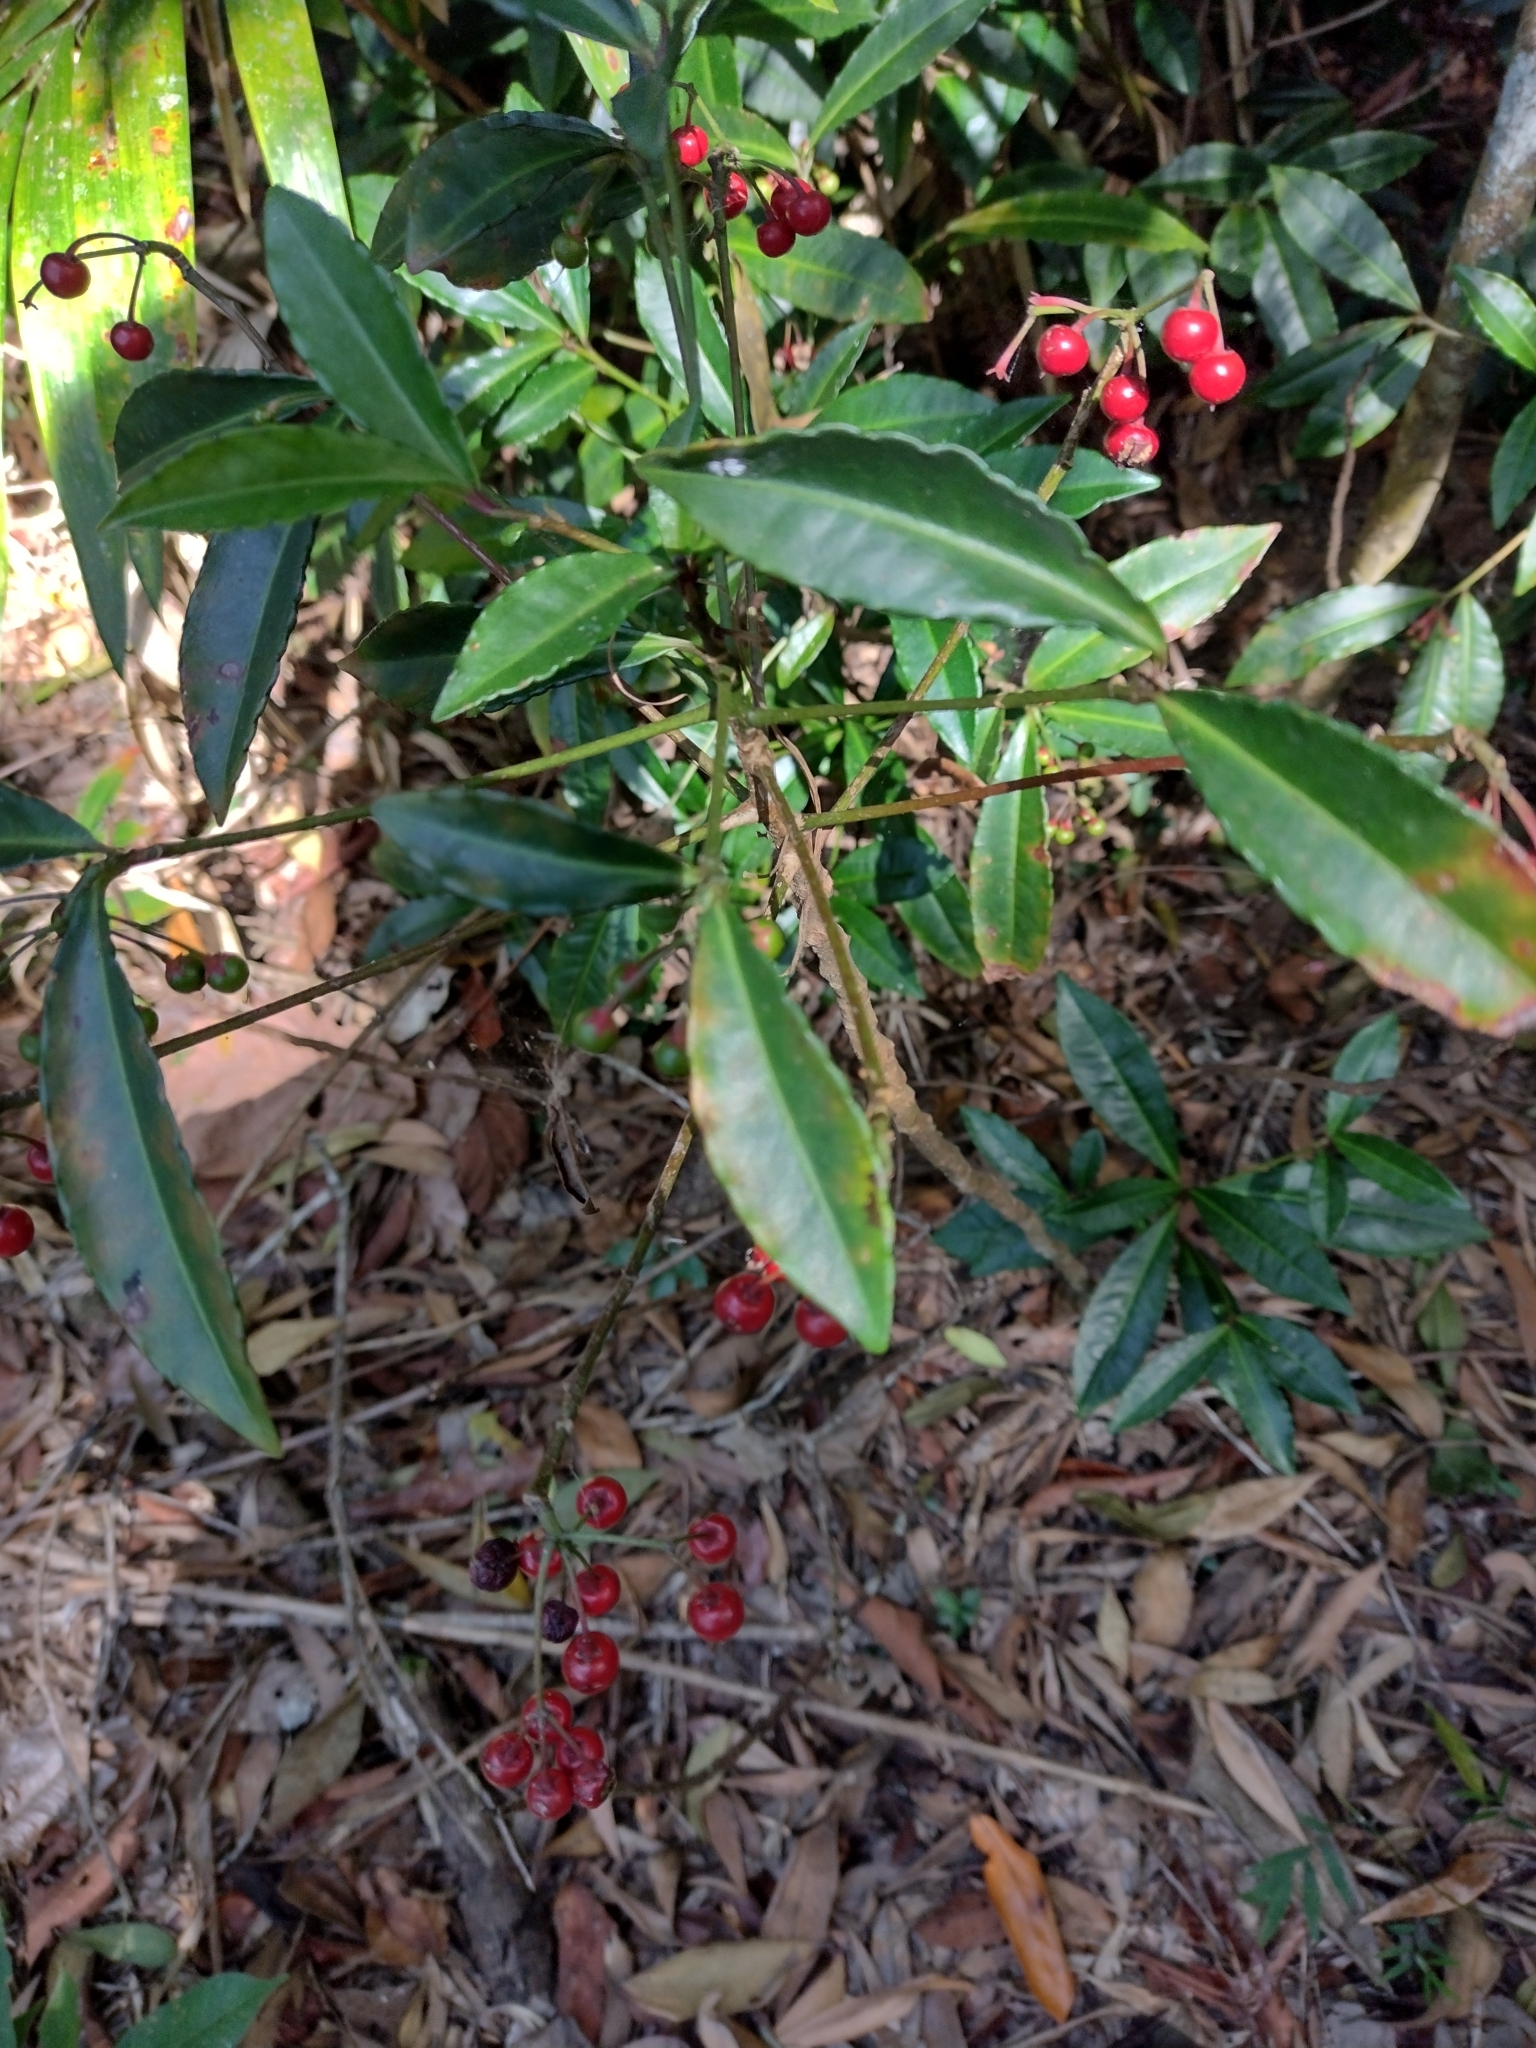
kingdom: Plantae
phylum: Tracheophyta
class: Magnoliopsida
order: Ericales
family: Primulaceae
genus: Ardisia
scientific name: Ardisia crenata
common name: Hen's eyes
